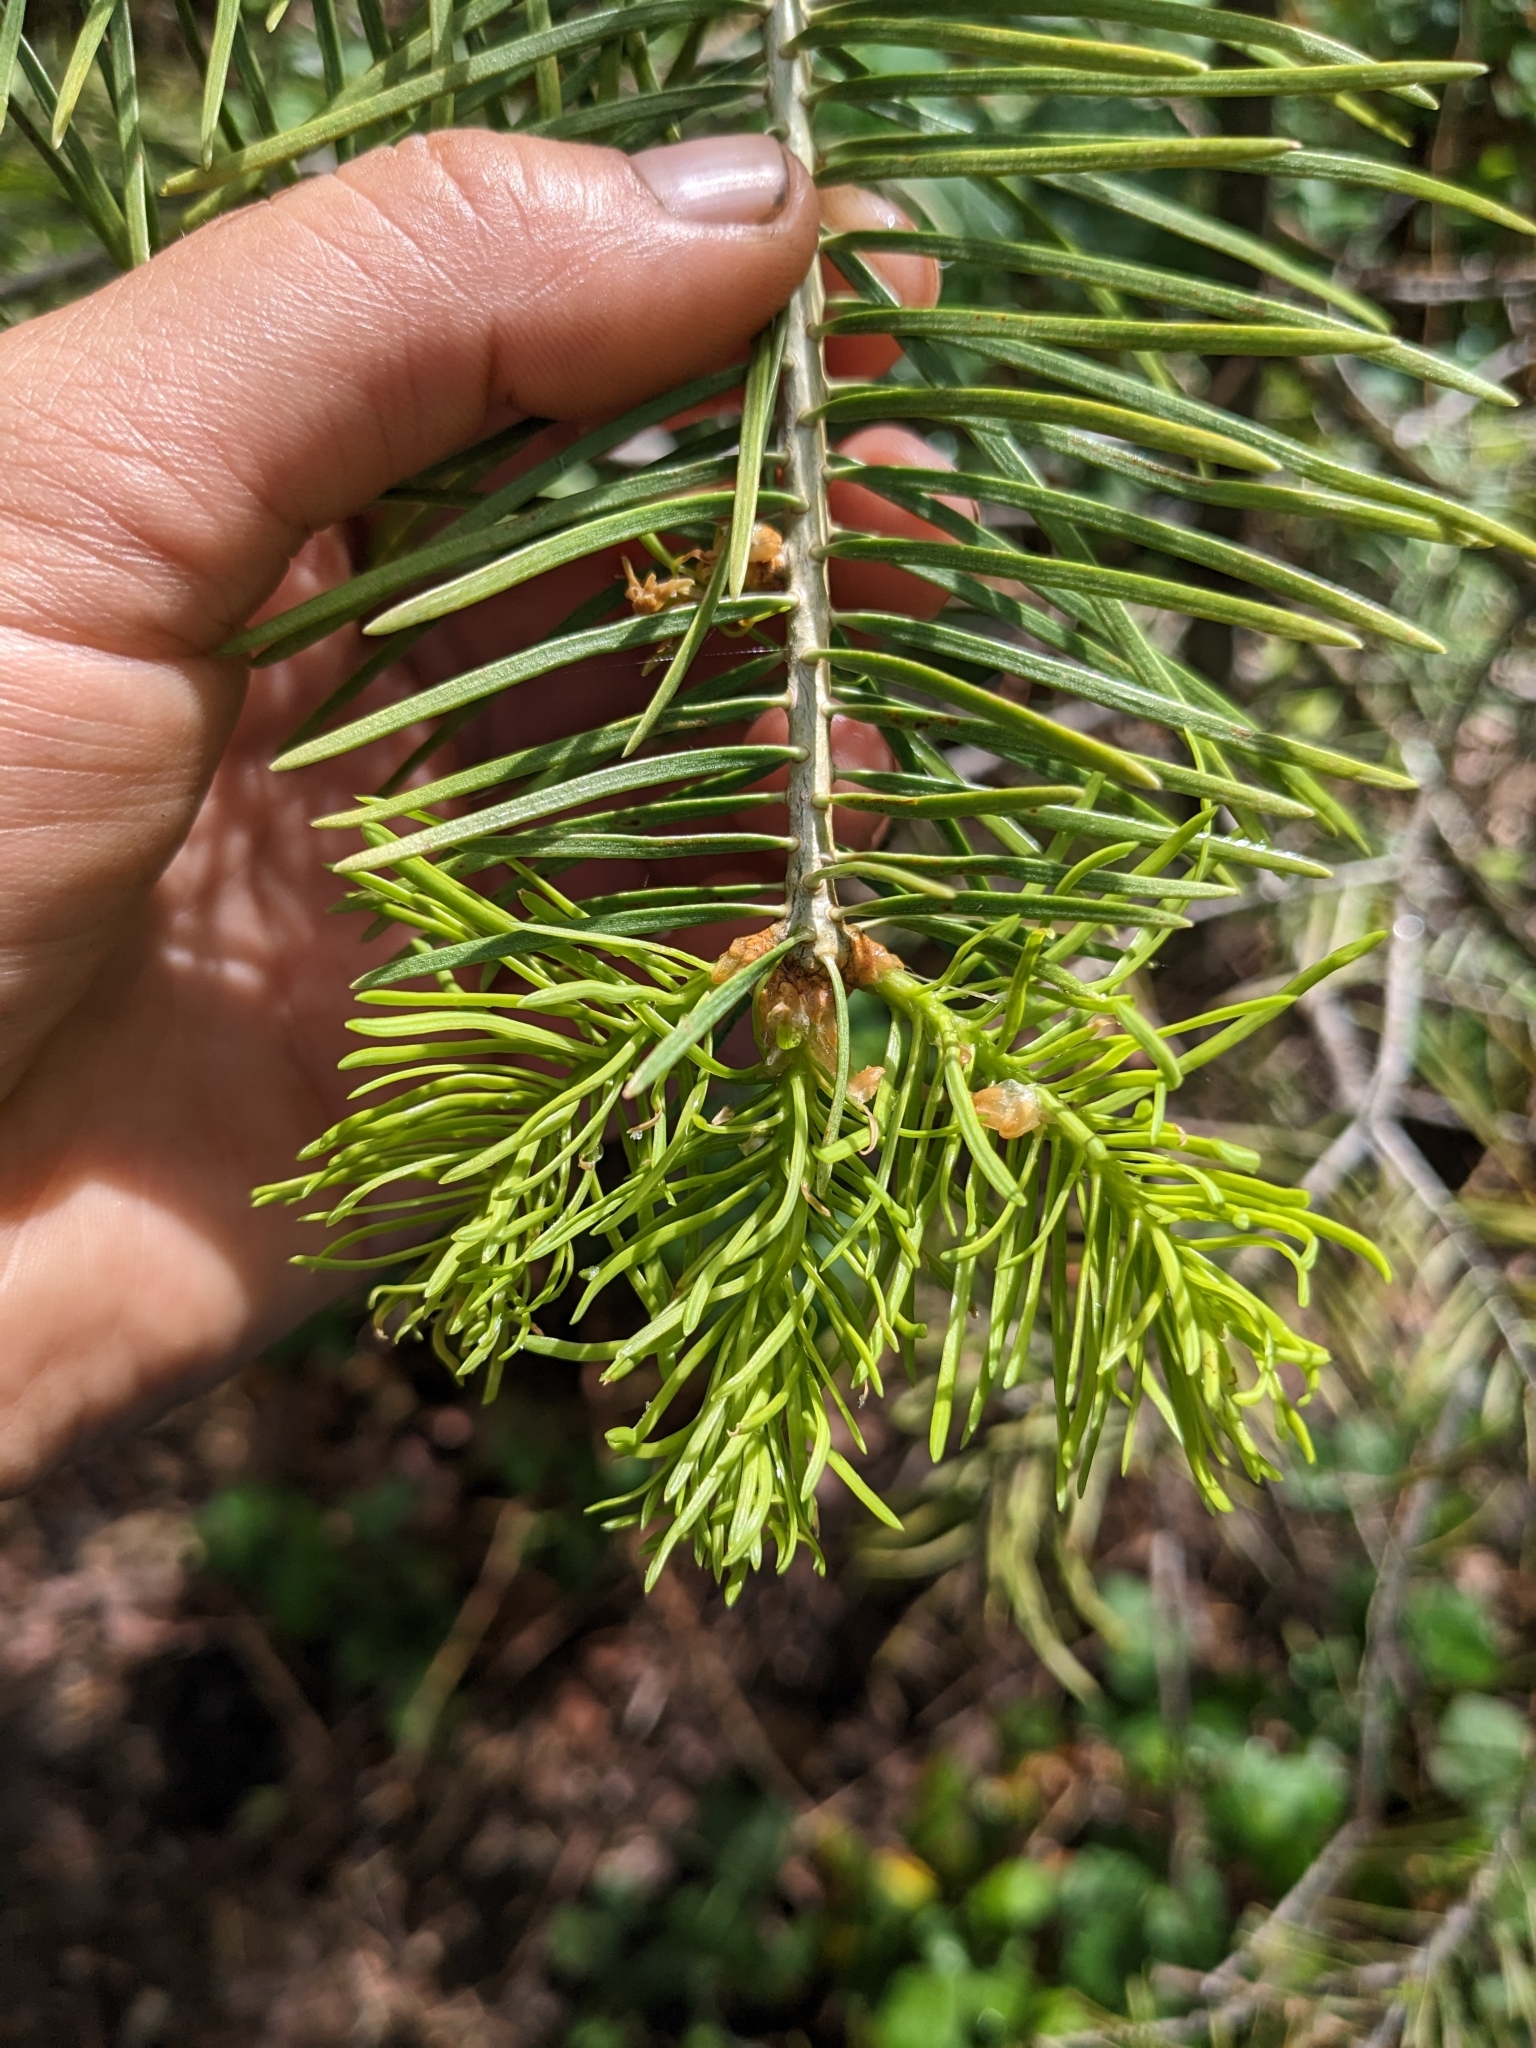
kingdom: Plantae
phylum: Tracheophyta
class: Pinopsida
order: Pinales
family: Pinaceae
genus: Abies
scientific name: Abies concolor
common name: Colorado fir
